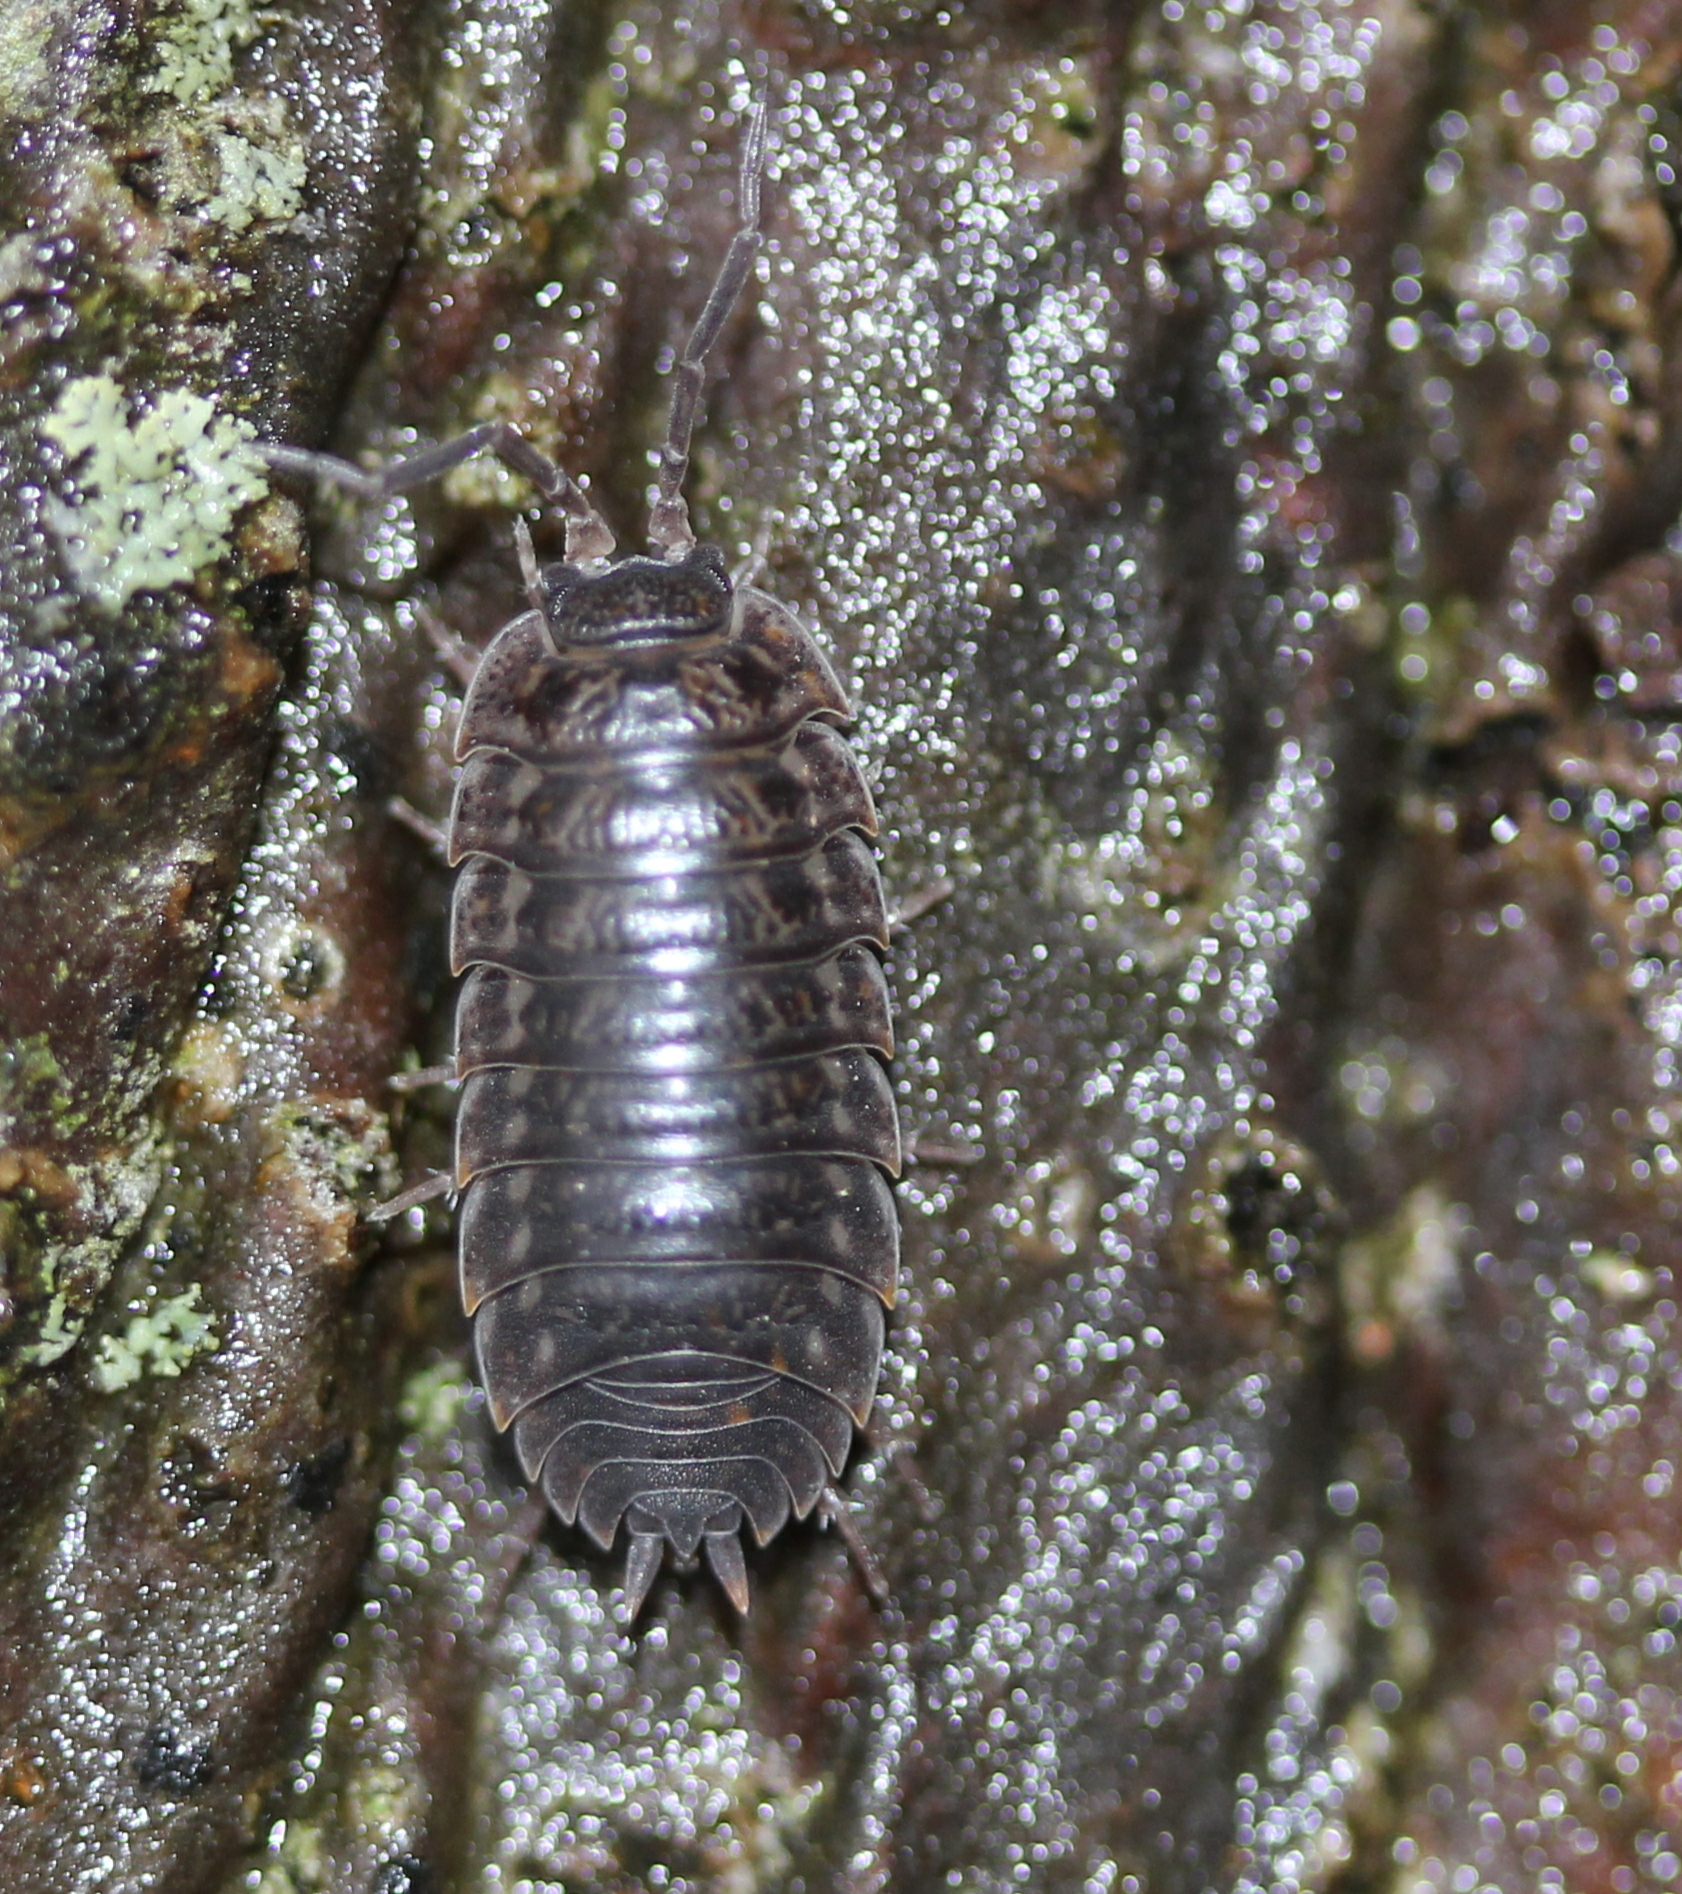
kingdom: Animalia
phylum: Arthropoda
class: Malacostraca
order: Isopoda
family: Trachelipodidae
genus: Trachelipus
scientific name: Trachelipus rathkii
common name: Isopod
